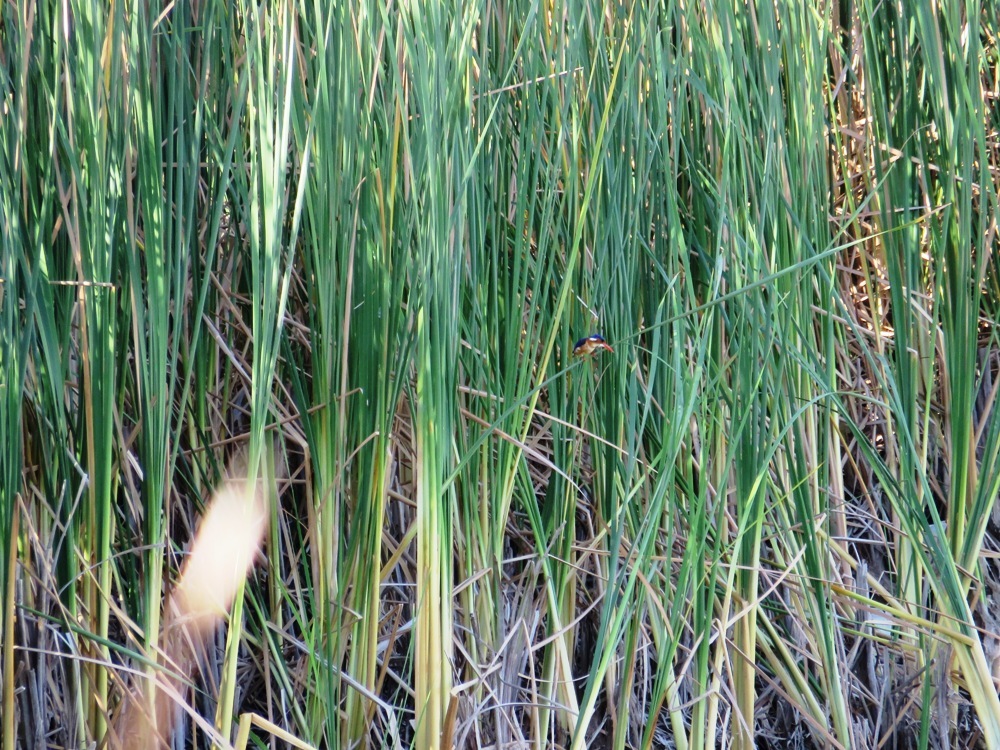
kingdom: Animalia
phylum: Chordata
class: Aves
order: Coraciiformes
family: Alcedinidae
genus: Corythornis
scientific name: Corythornis cristatus
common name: Malachite kingfisher
